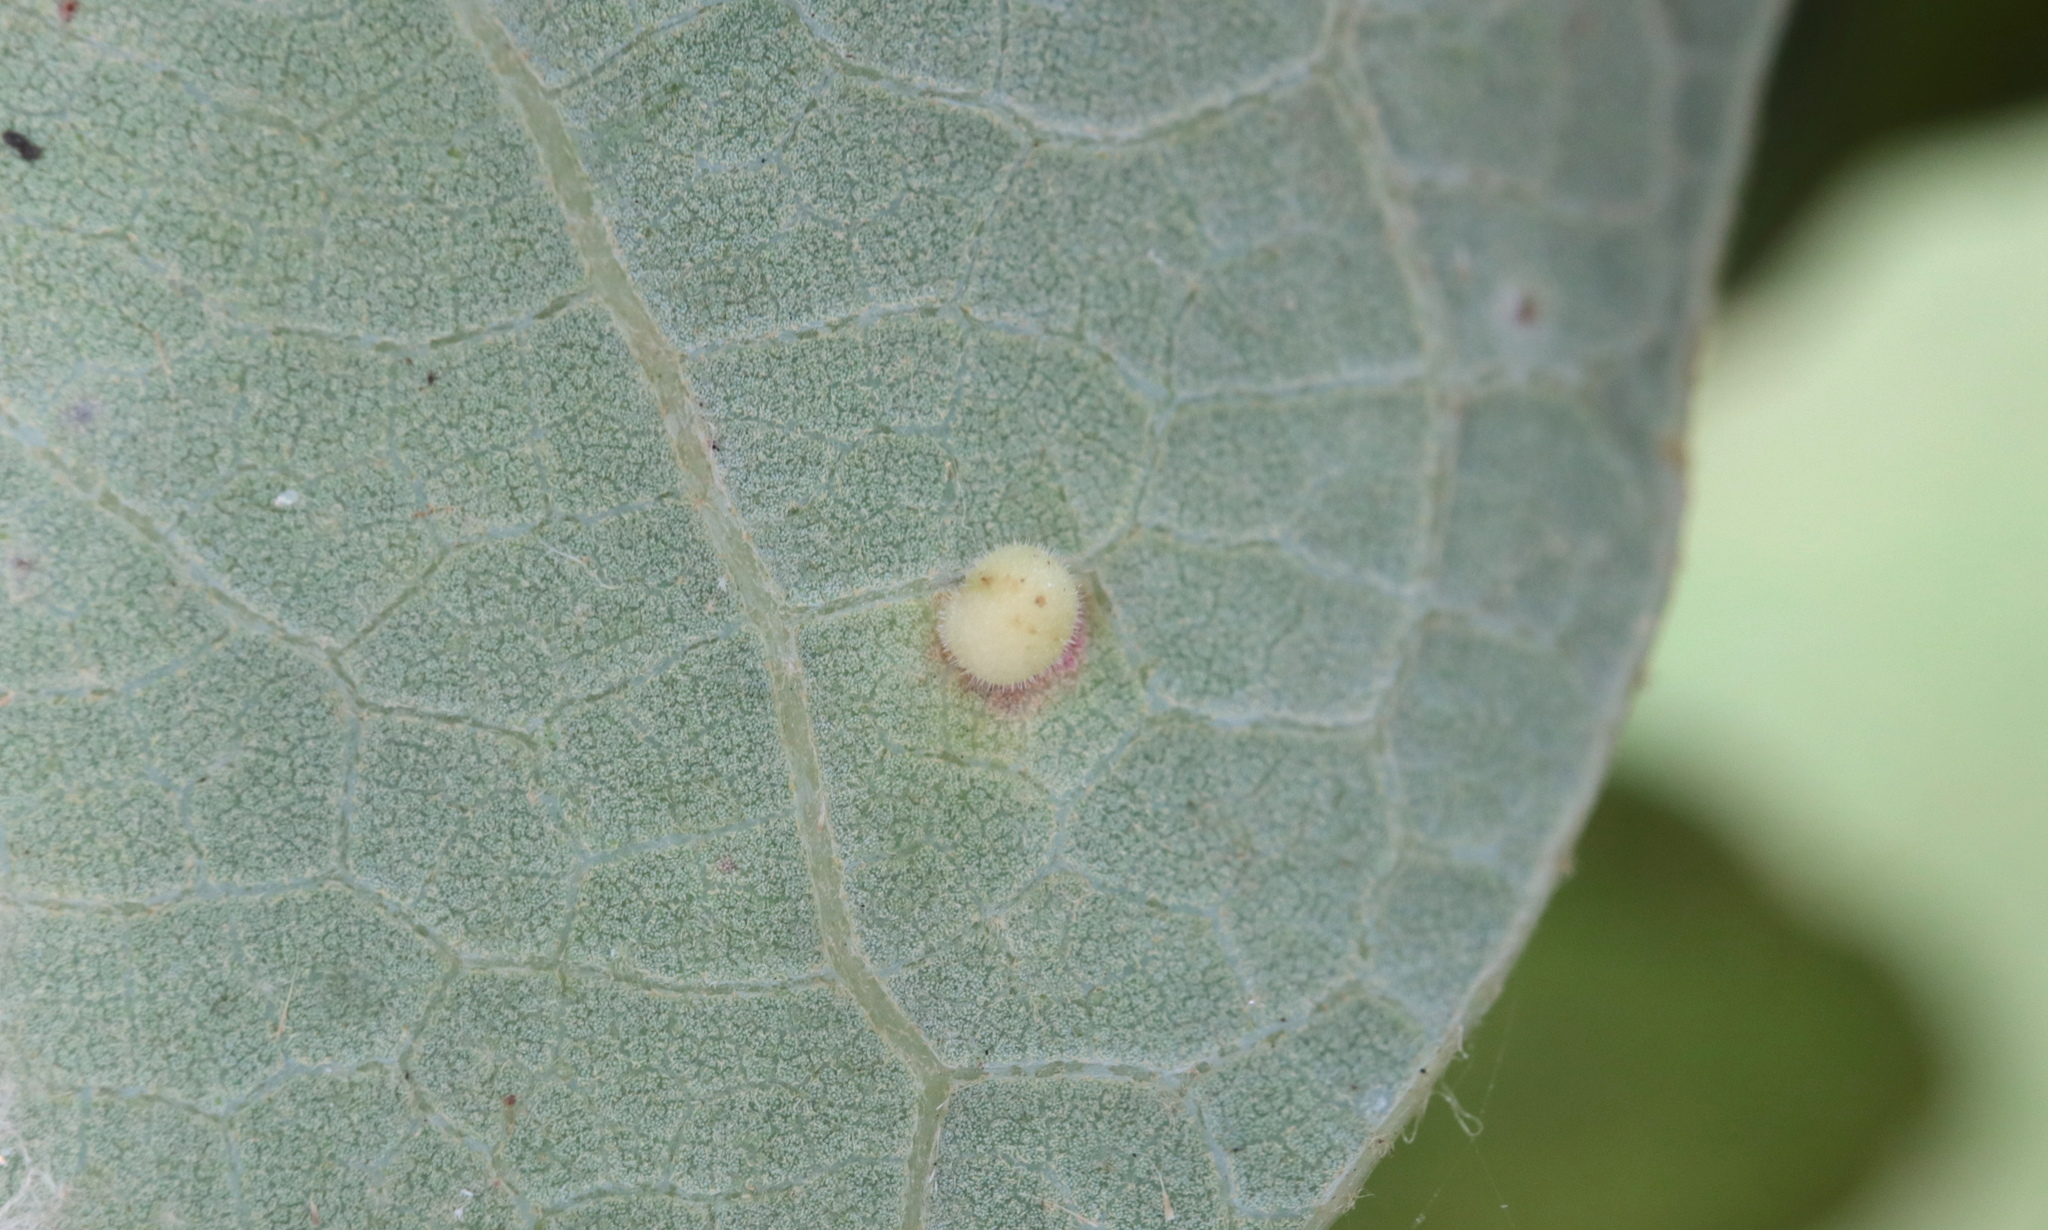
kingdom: Animalia
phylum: Arthropoda
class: Insecta
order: Hymenoptera
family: Cynipidae
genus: Neuroterus
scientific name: Neuroterus saltarius
